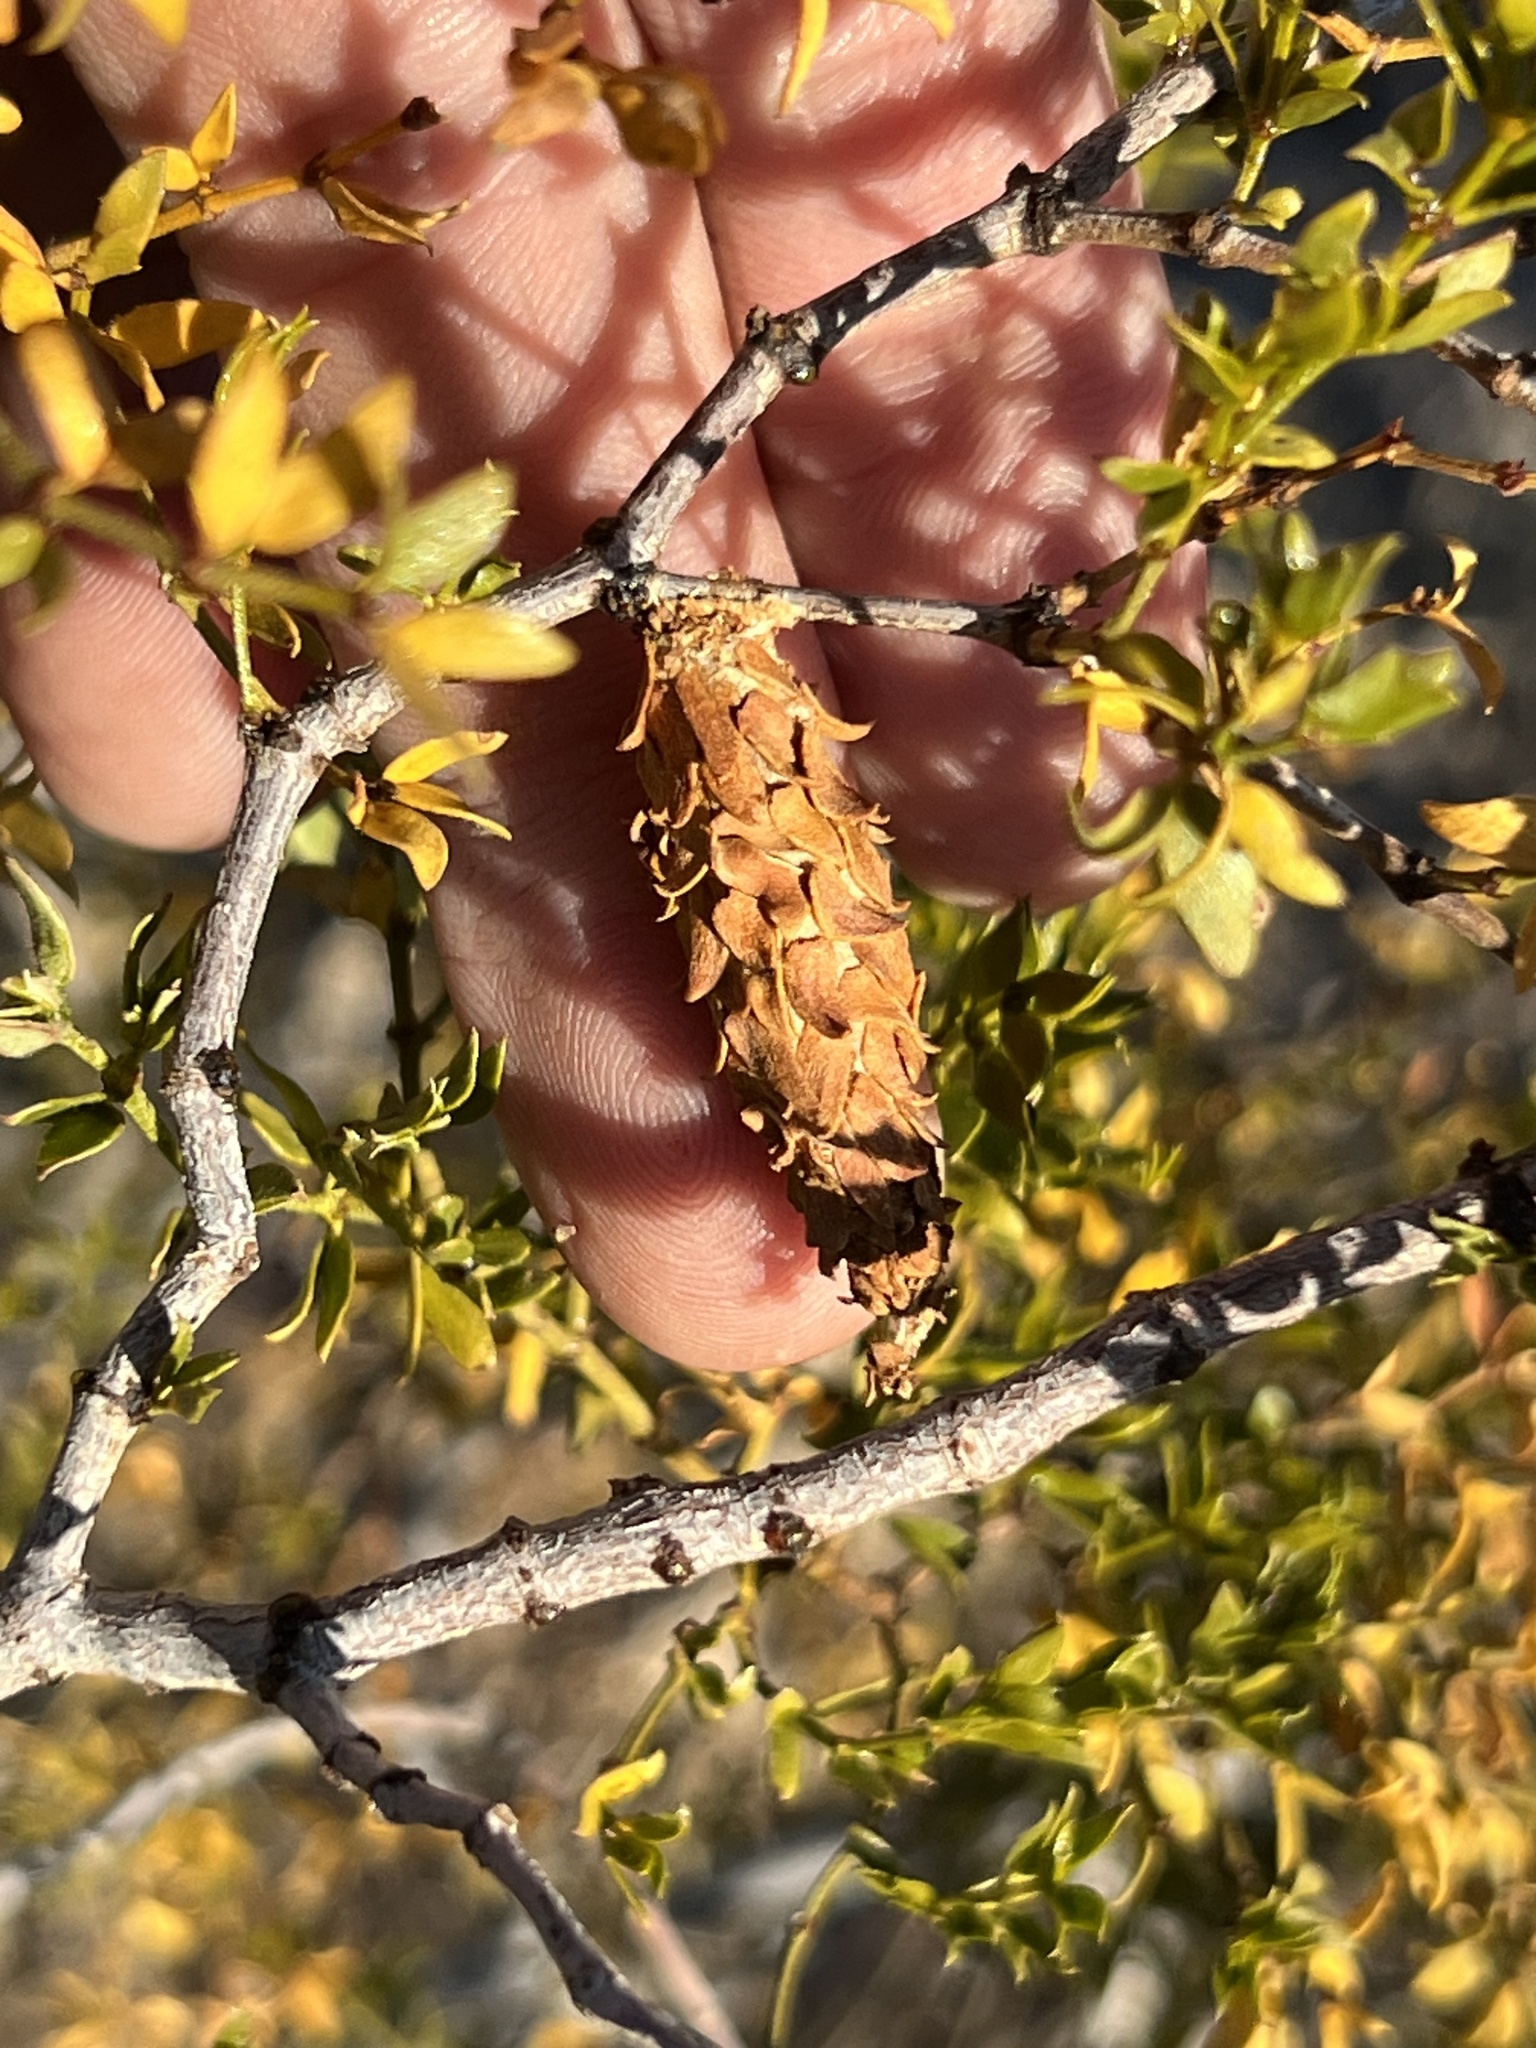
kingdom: Animalia
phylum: Arthropoda
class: Insecta
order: Lepidoptera
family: Psychidae
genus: Thyridopteryx
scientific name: Thyridopteryx meadii
